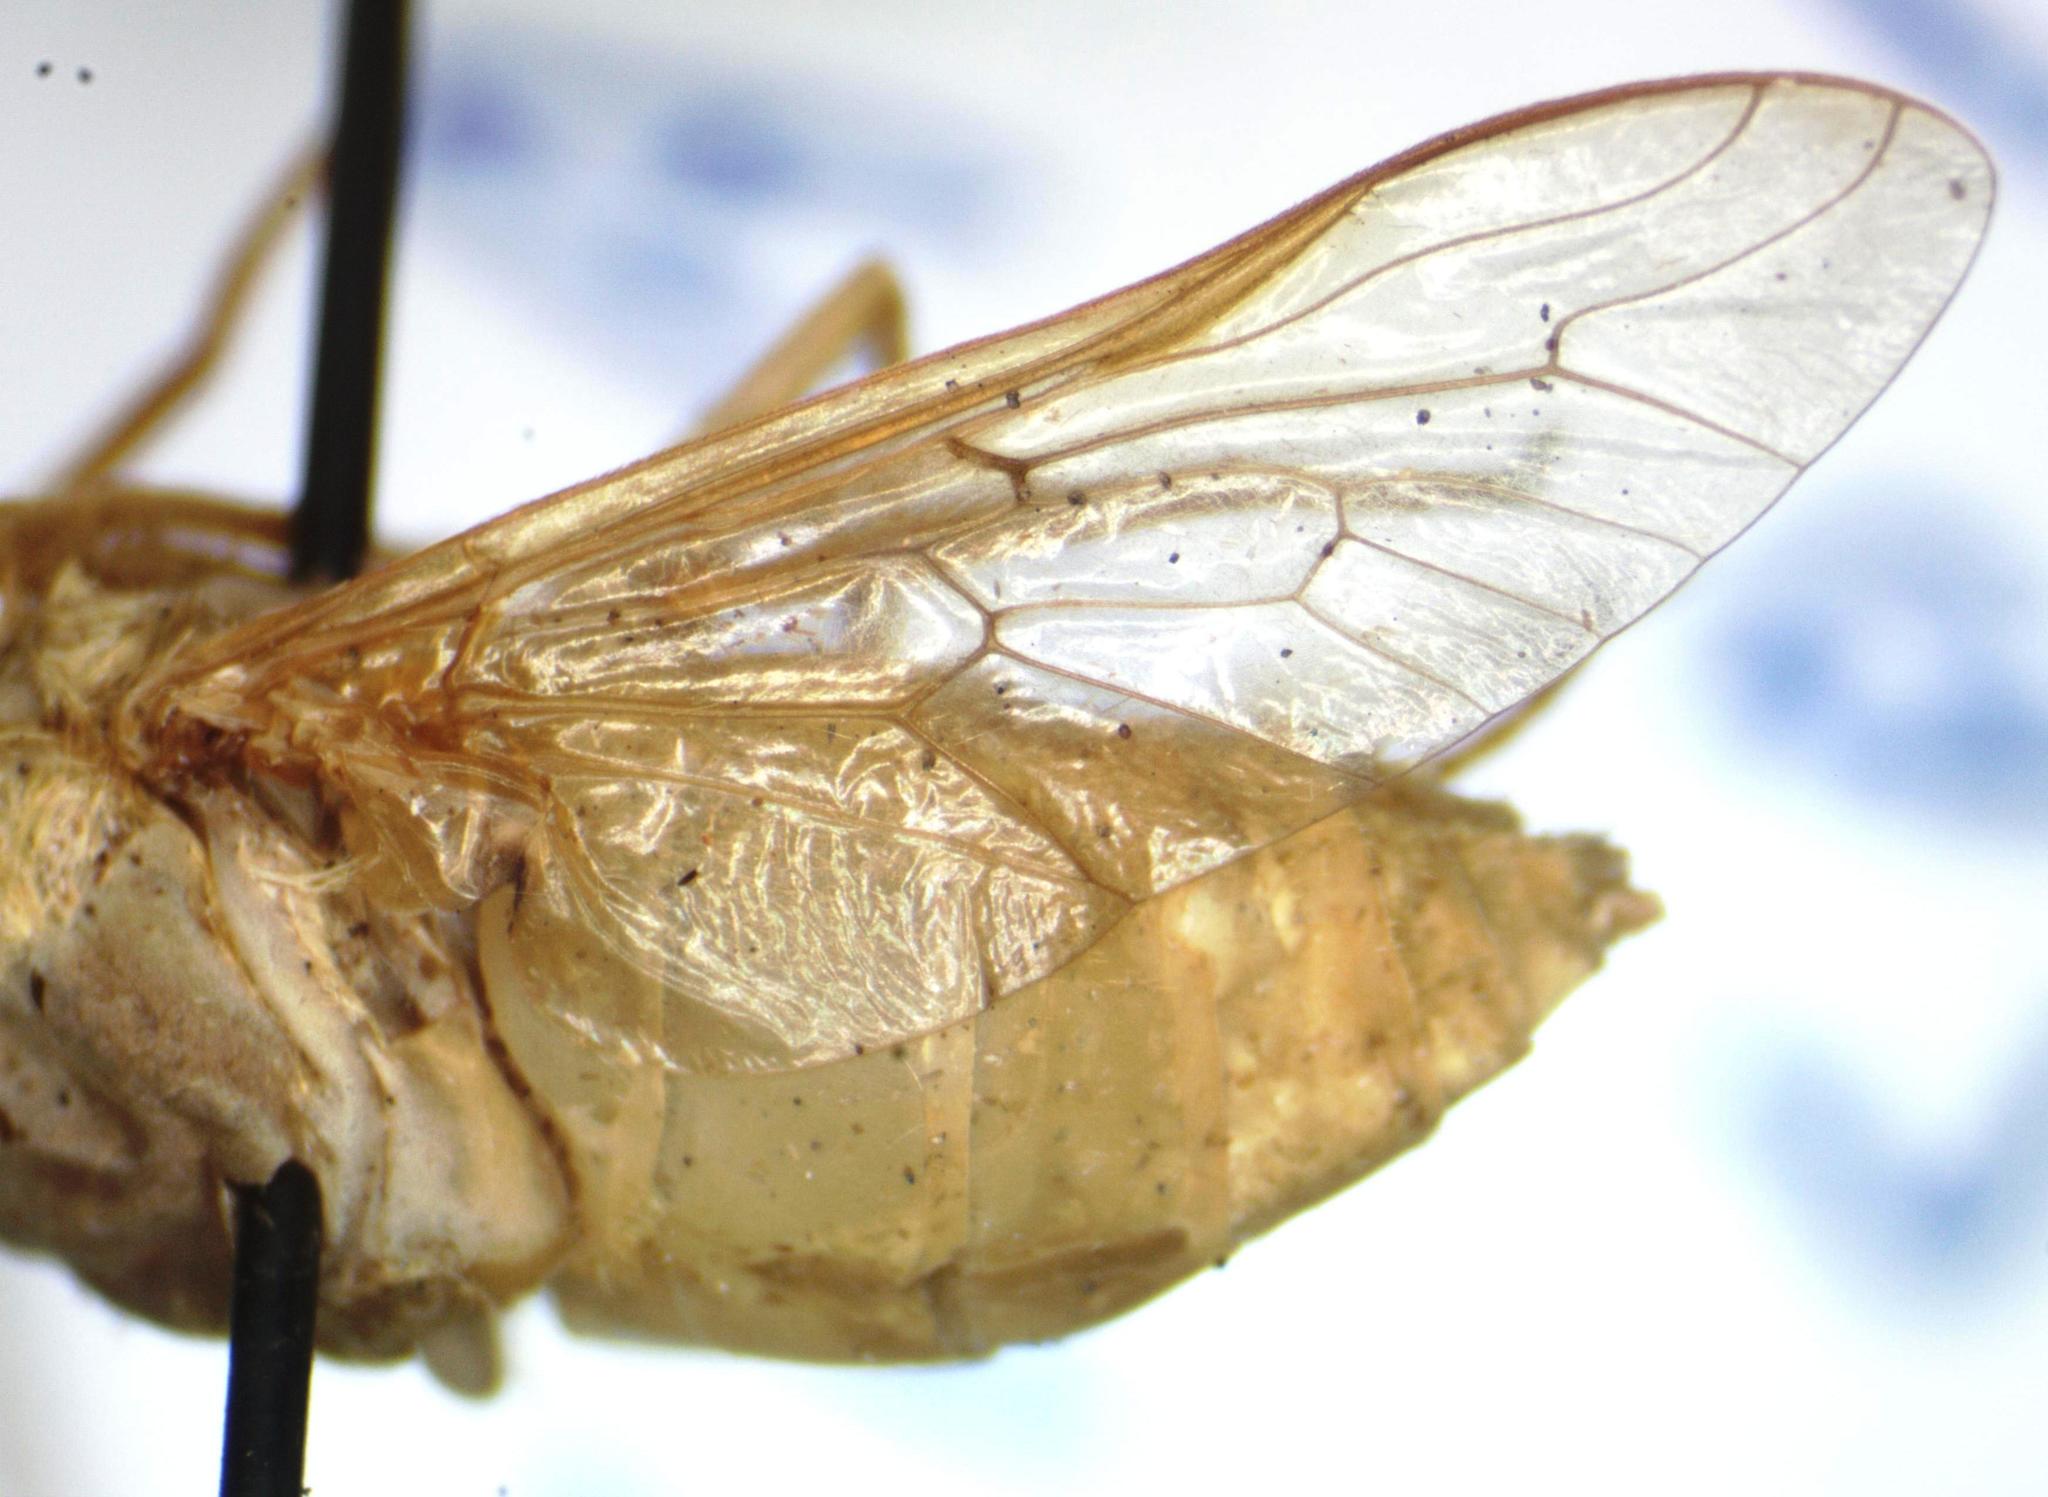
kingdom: Animalia
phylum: Arthropoda
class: Insecta
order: Diptera
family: Tabanidae
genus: Chlorotabanus
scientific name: Chlorotabanus inanis
